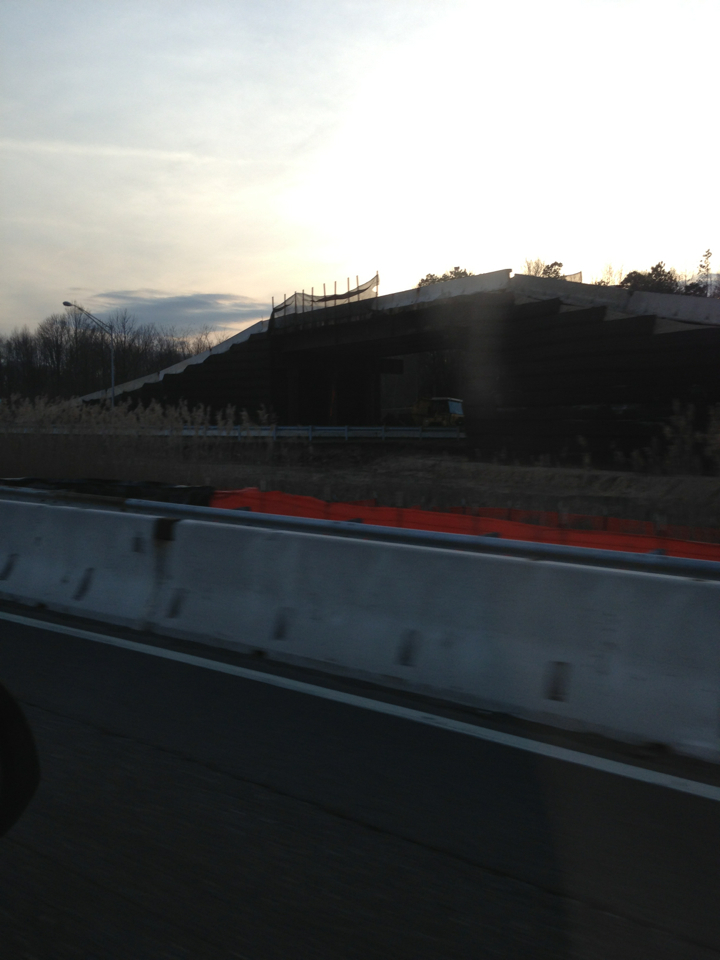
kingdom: Plantae
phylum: Tracheophyta
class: Liliopsida
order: Poales
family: Poaceae
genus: Phragmites
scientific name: Phragmites australis
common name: Common reed
